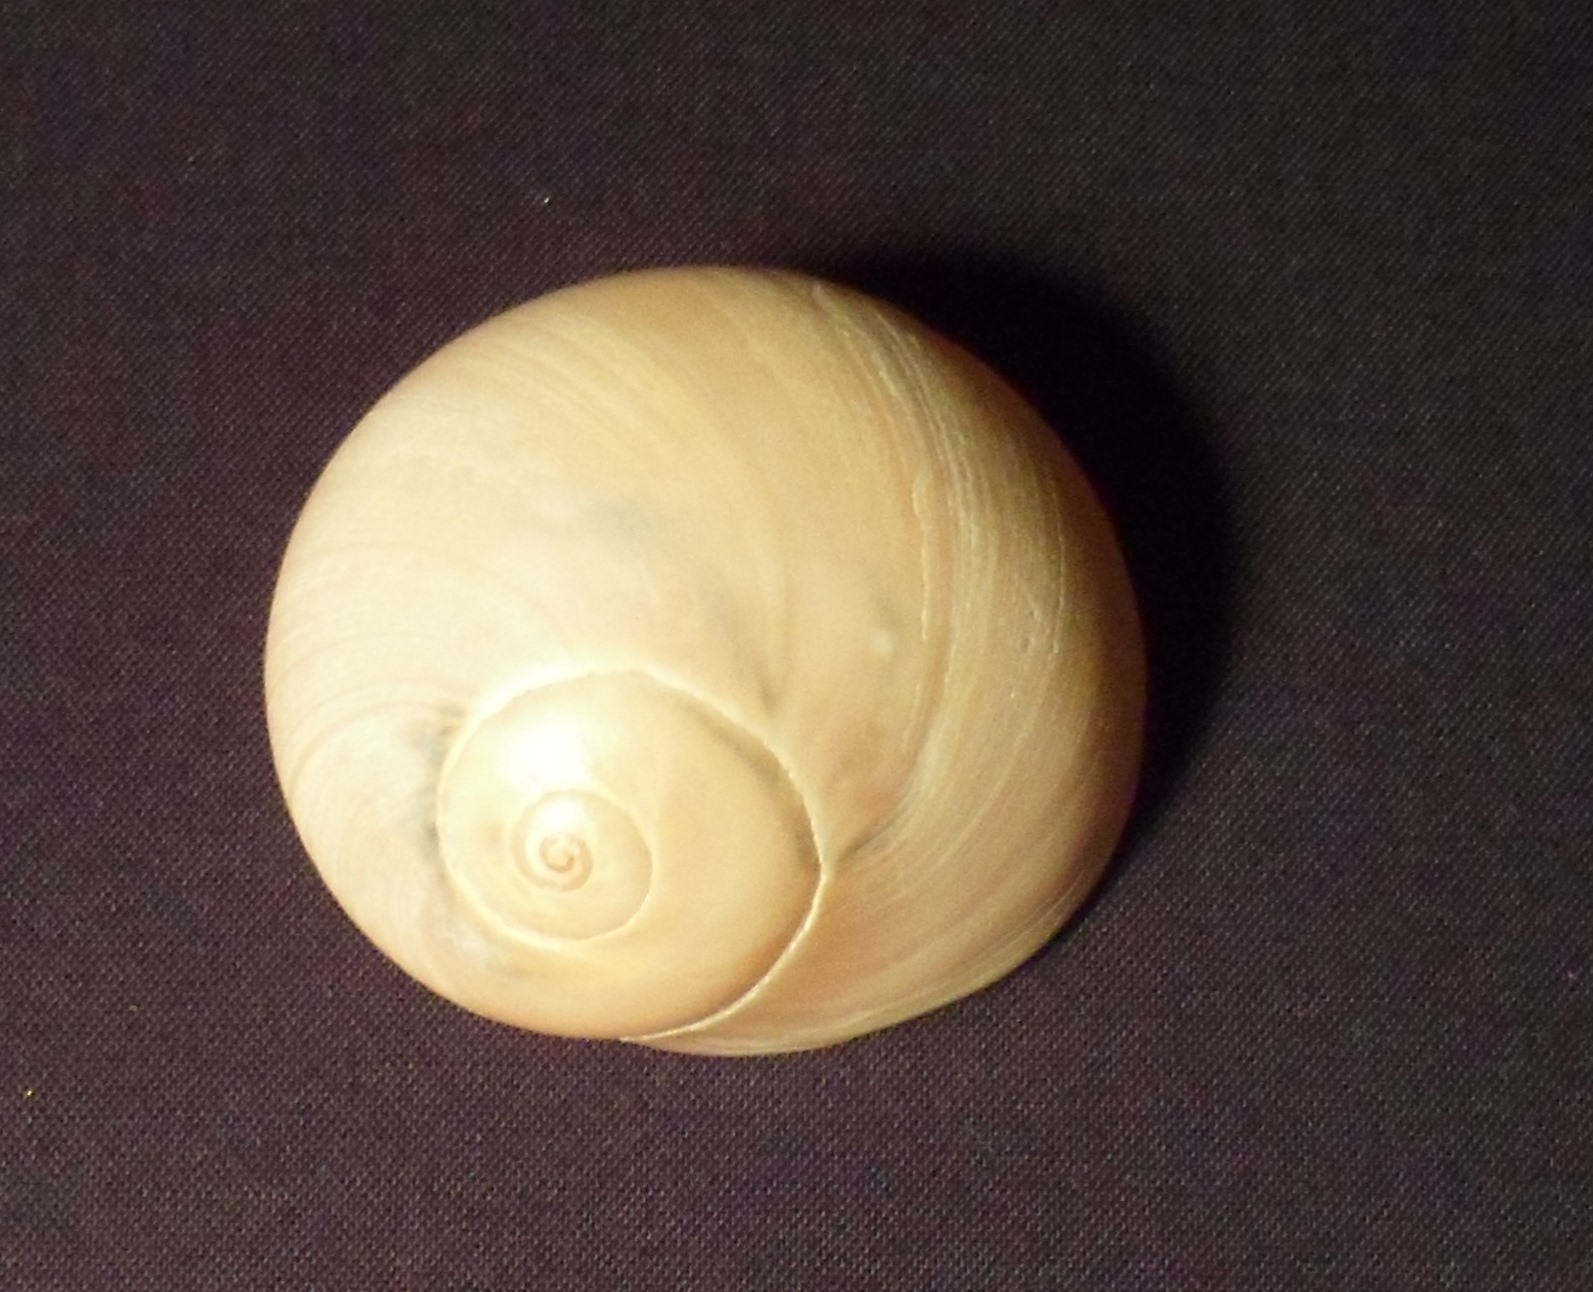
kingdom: Animalia
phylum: Mollusca
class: Gastropoda
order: Littorinimorpha
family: Naticidae
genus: Neverita
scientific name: Neverita duplicata
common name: Lobed moonsnail
